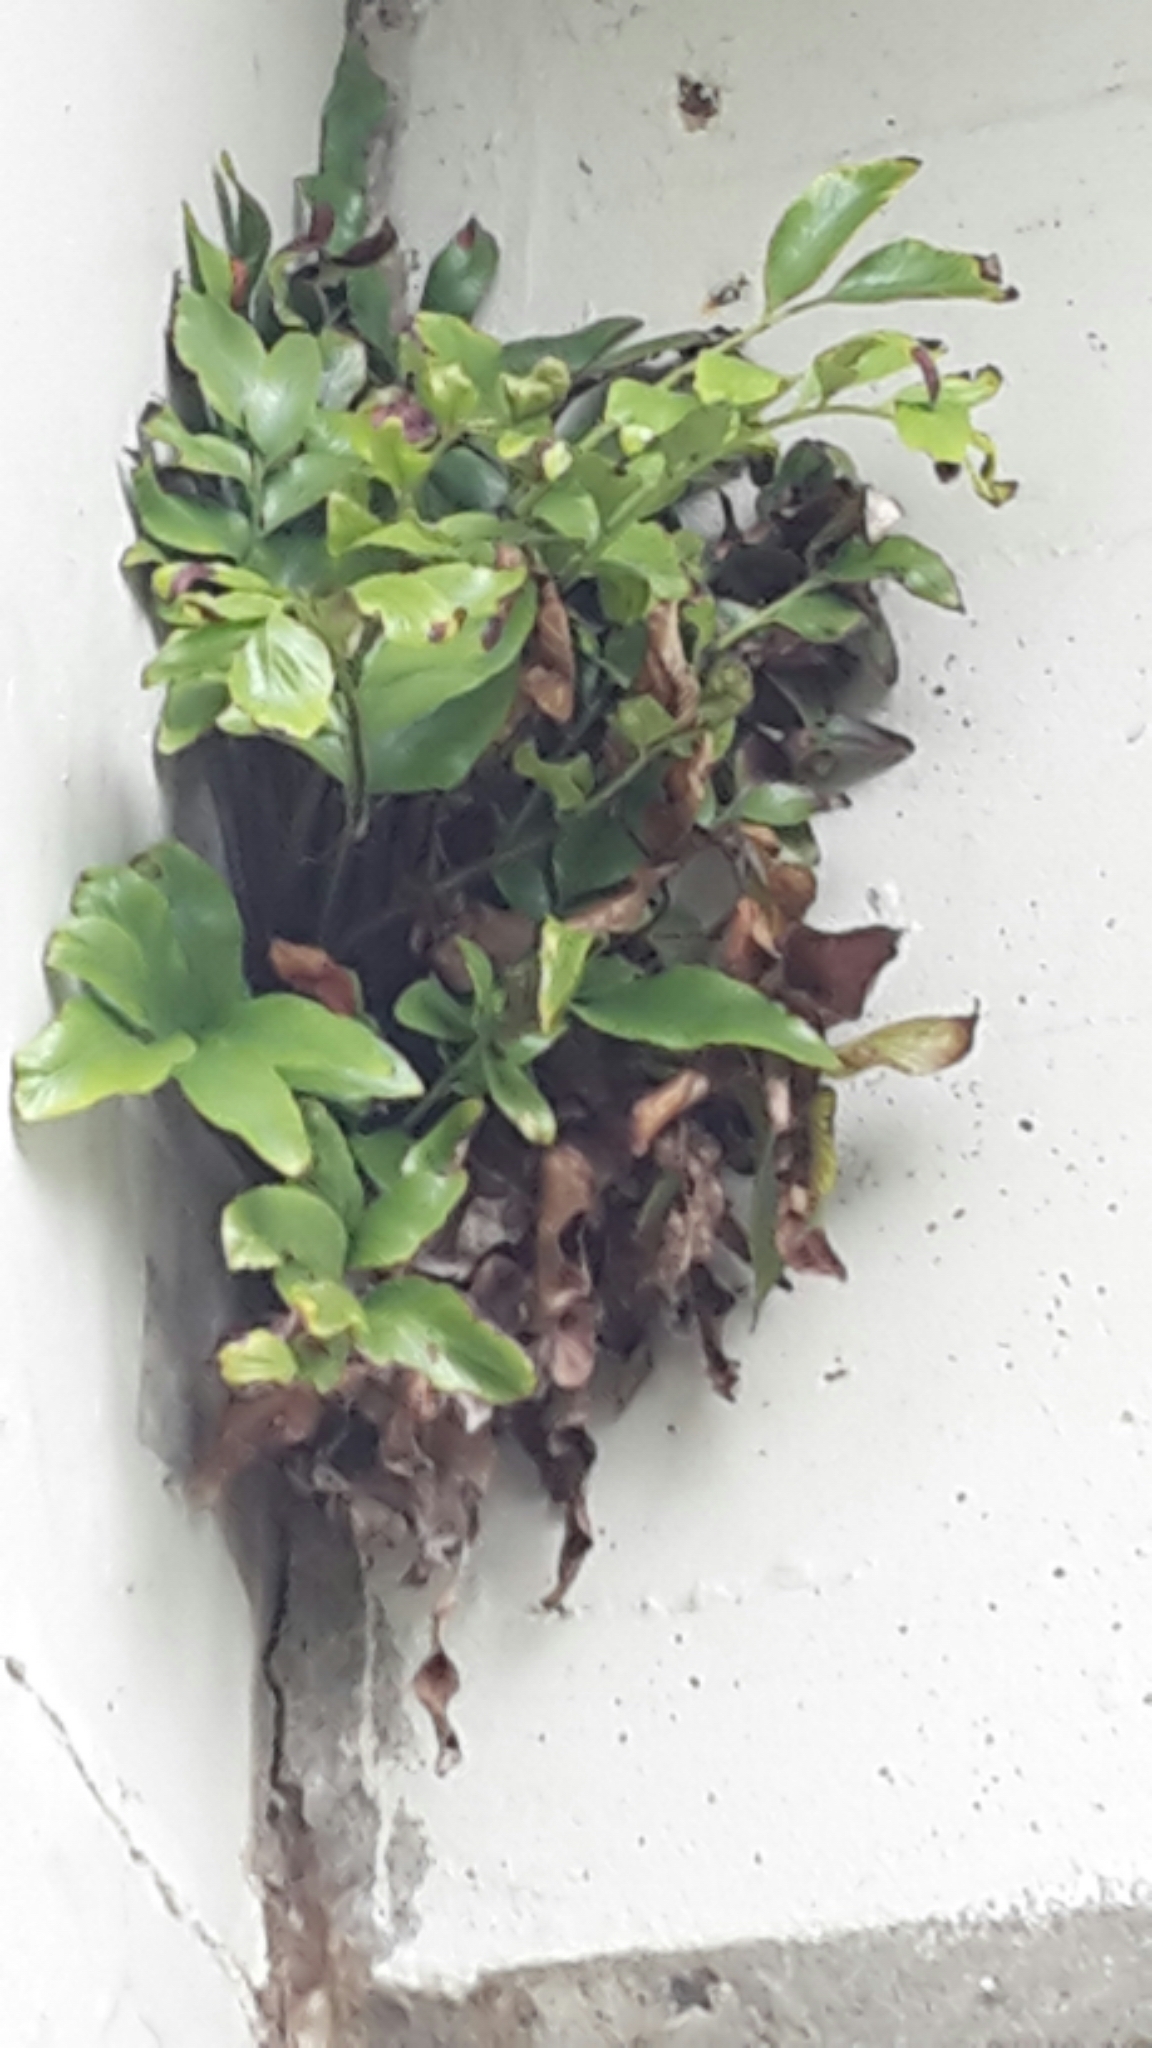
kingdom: Plantae
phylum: Tracheophyta
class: Polypodiopsida
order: Polypodiales
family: Aspleniaceae
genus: Asplenium
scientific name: Asplenium oblongifolium
